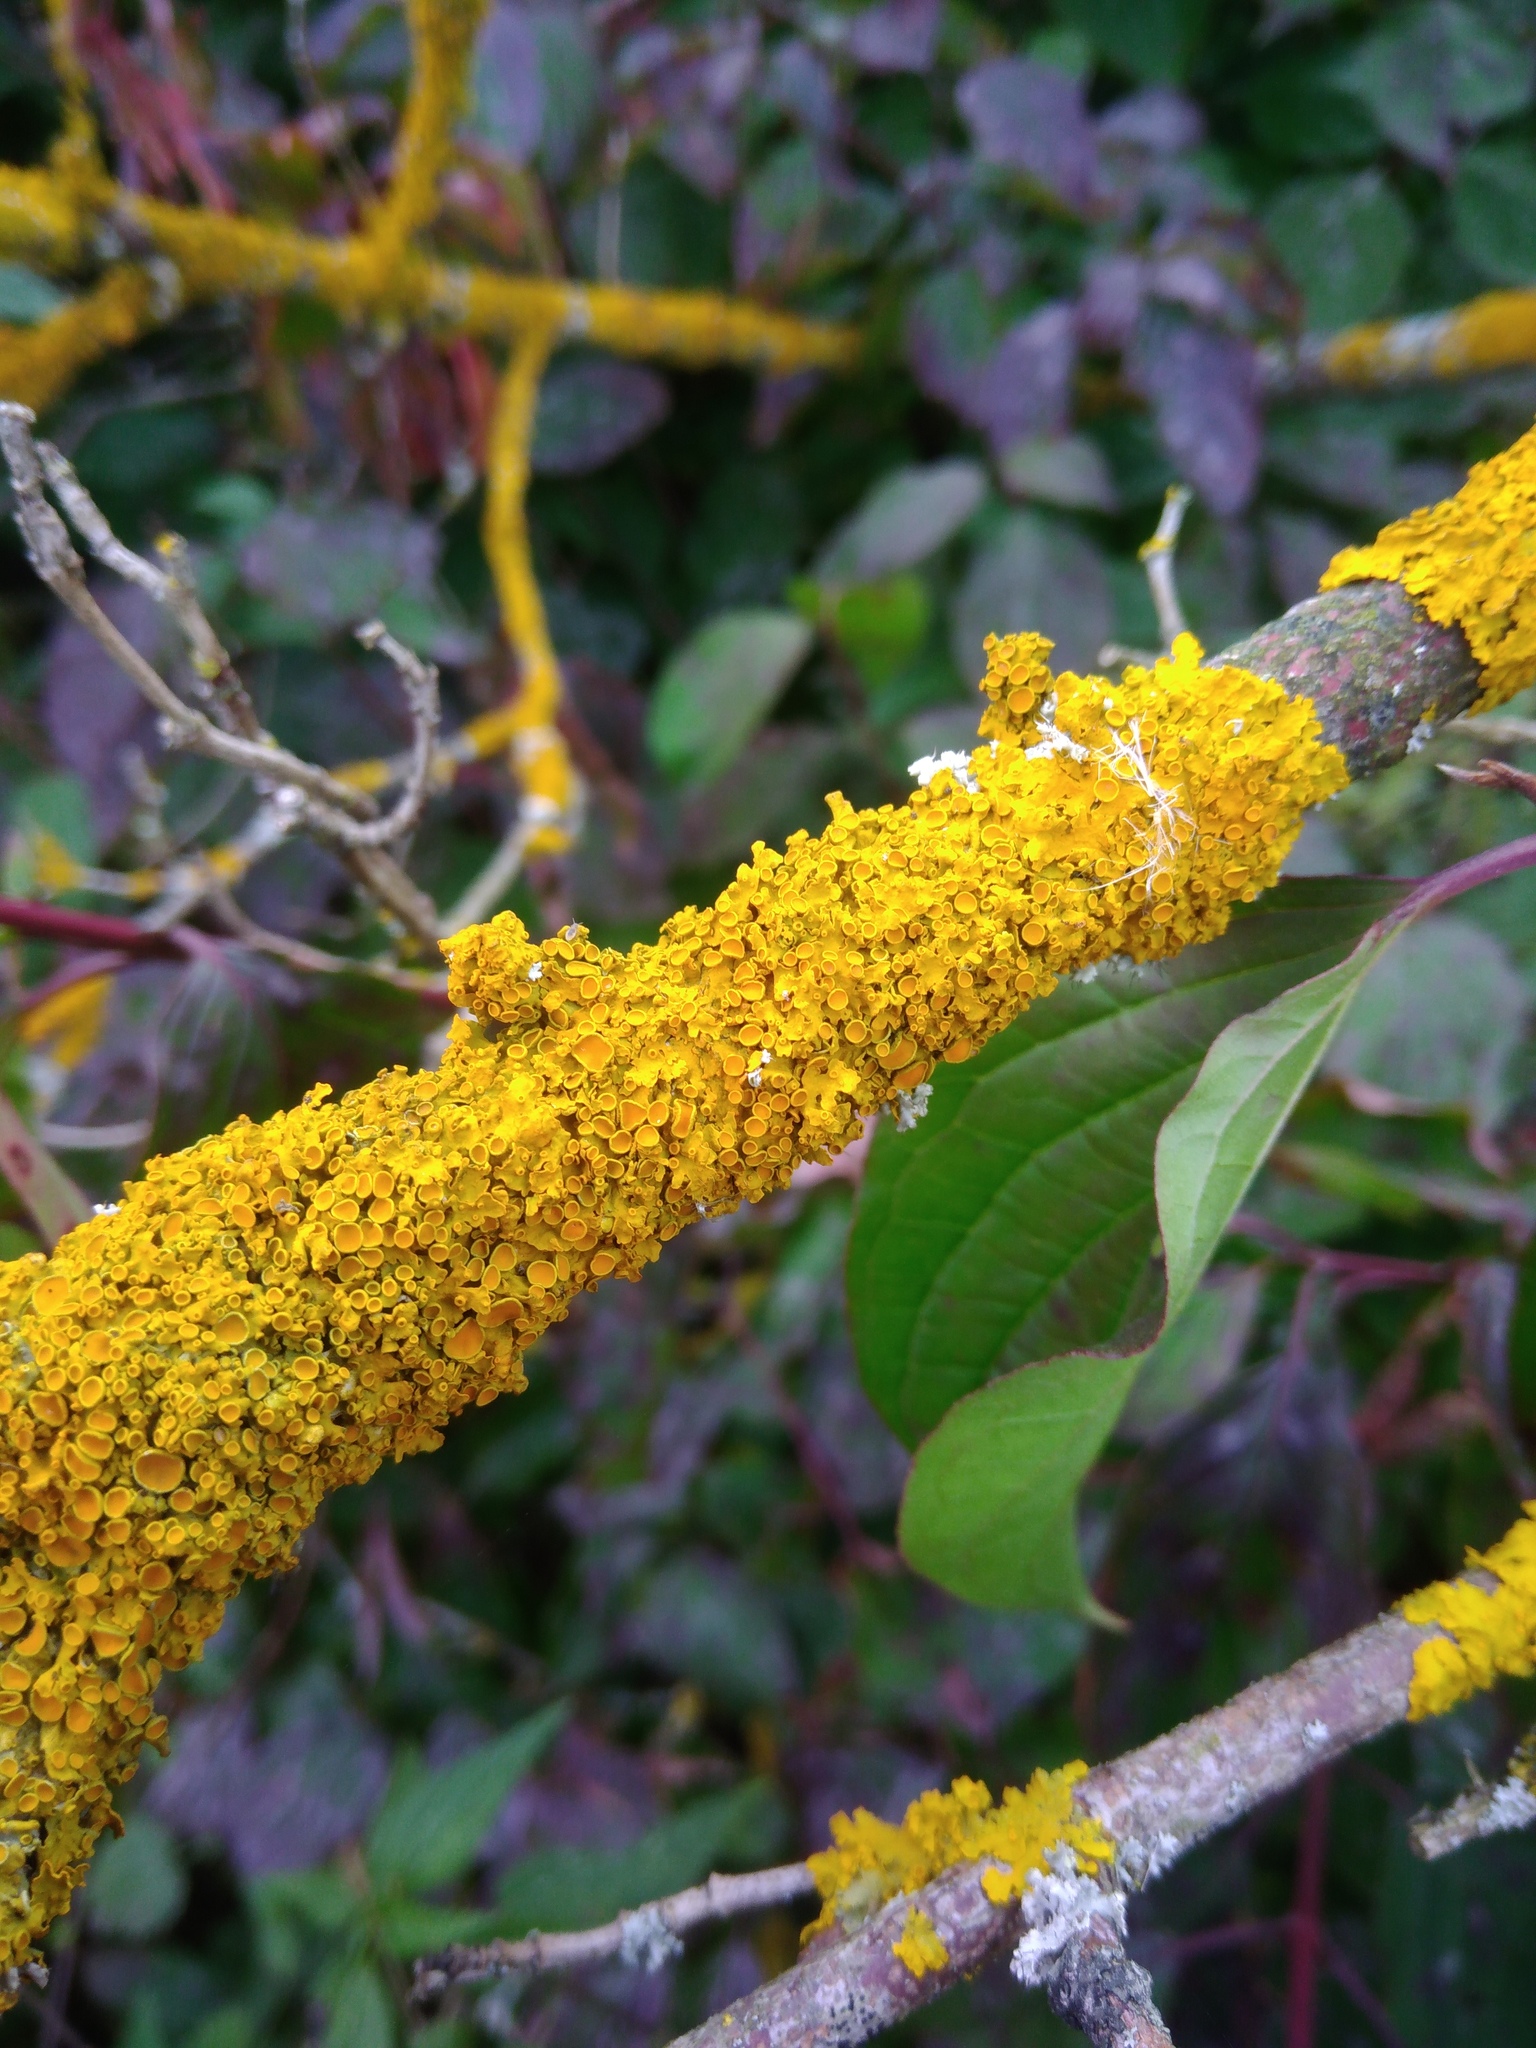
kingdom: Fungi
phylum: Ascomycota
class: Lecanoromycetes
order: Teloschistales
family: Teloschistaceae
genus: Xanthoria
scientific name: Xanthoria parietina
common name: Common orange lichen
